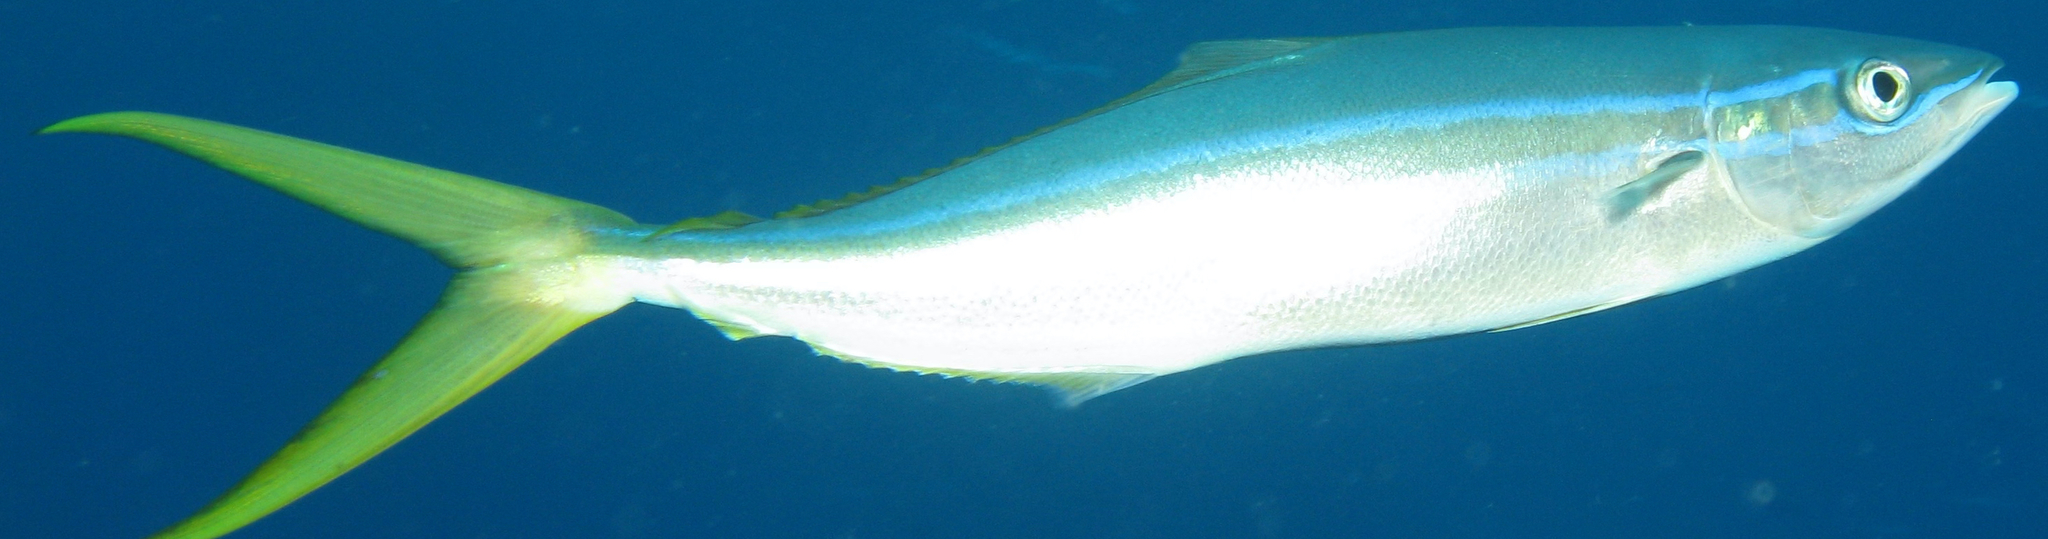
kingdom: Animalia
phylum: Chordata
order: Perciformes
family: Carangidae
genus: Elagatis
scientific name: Elagatis bipinnulata
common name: Rainbow runner
